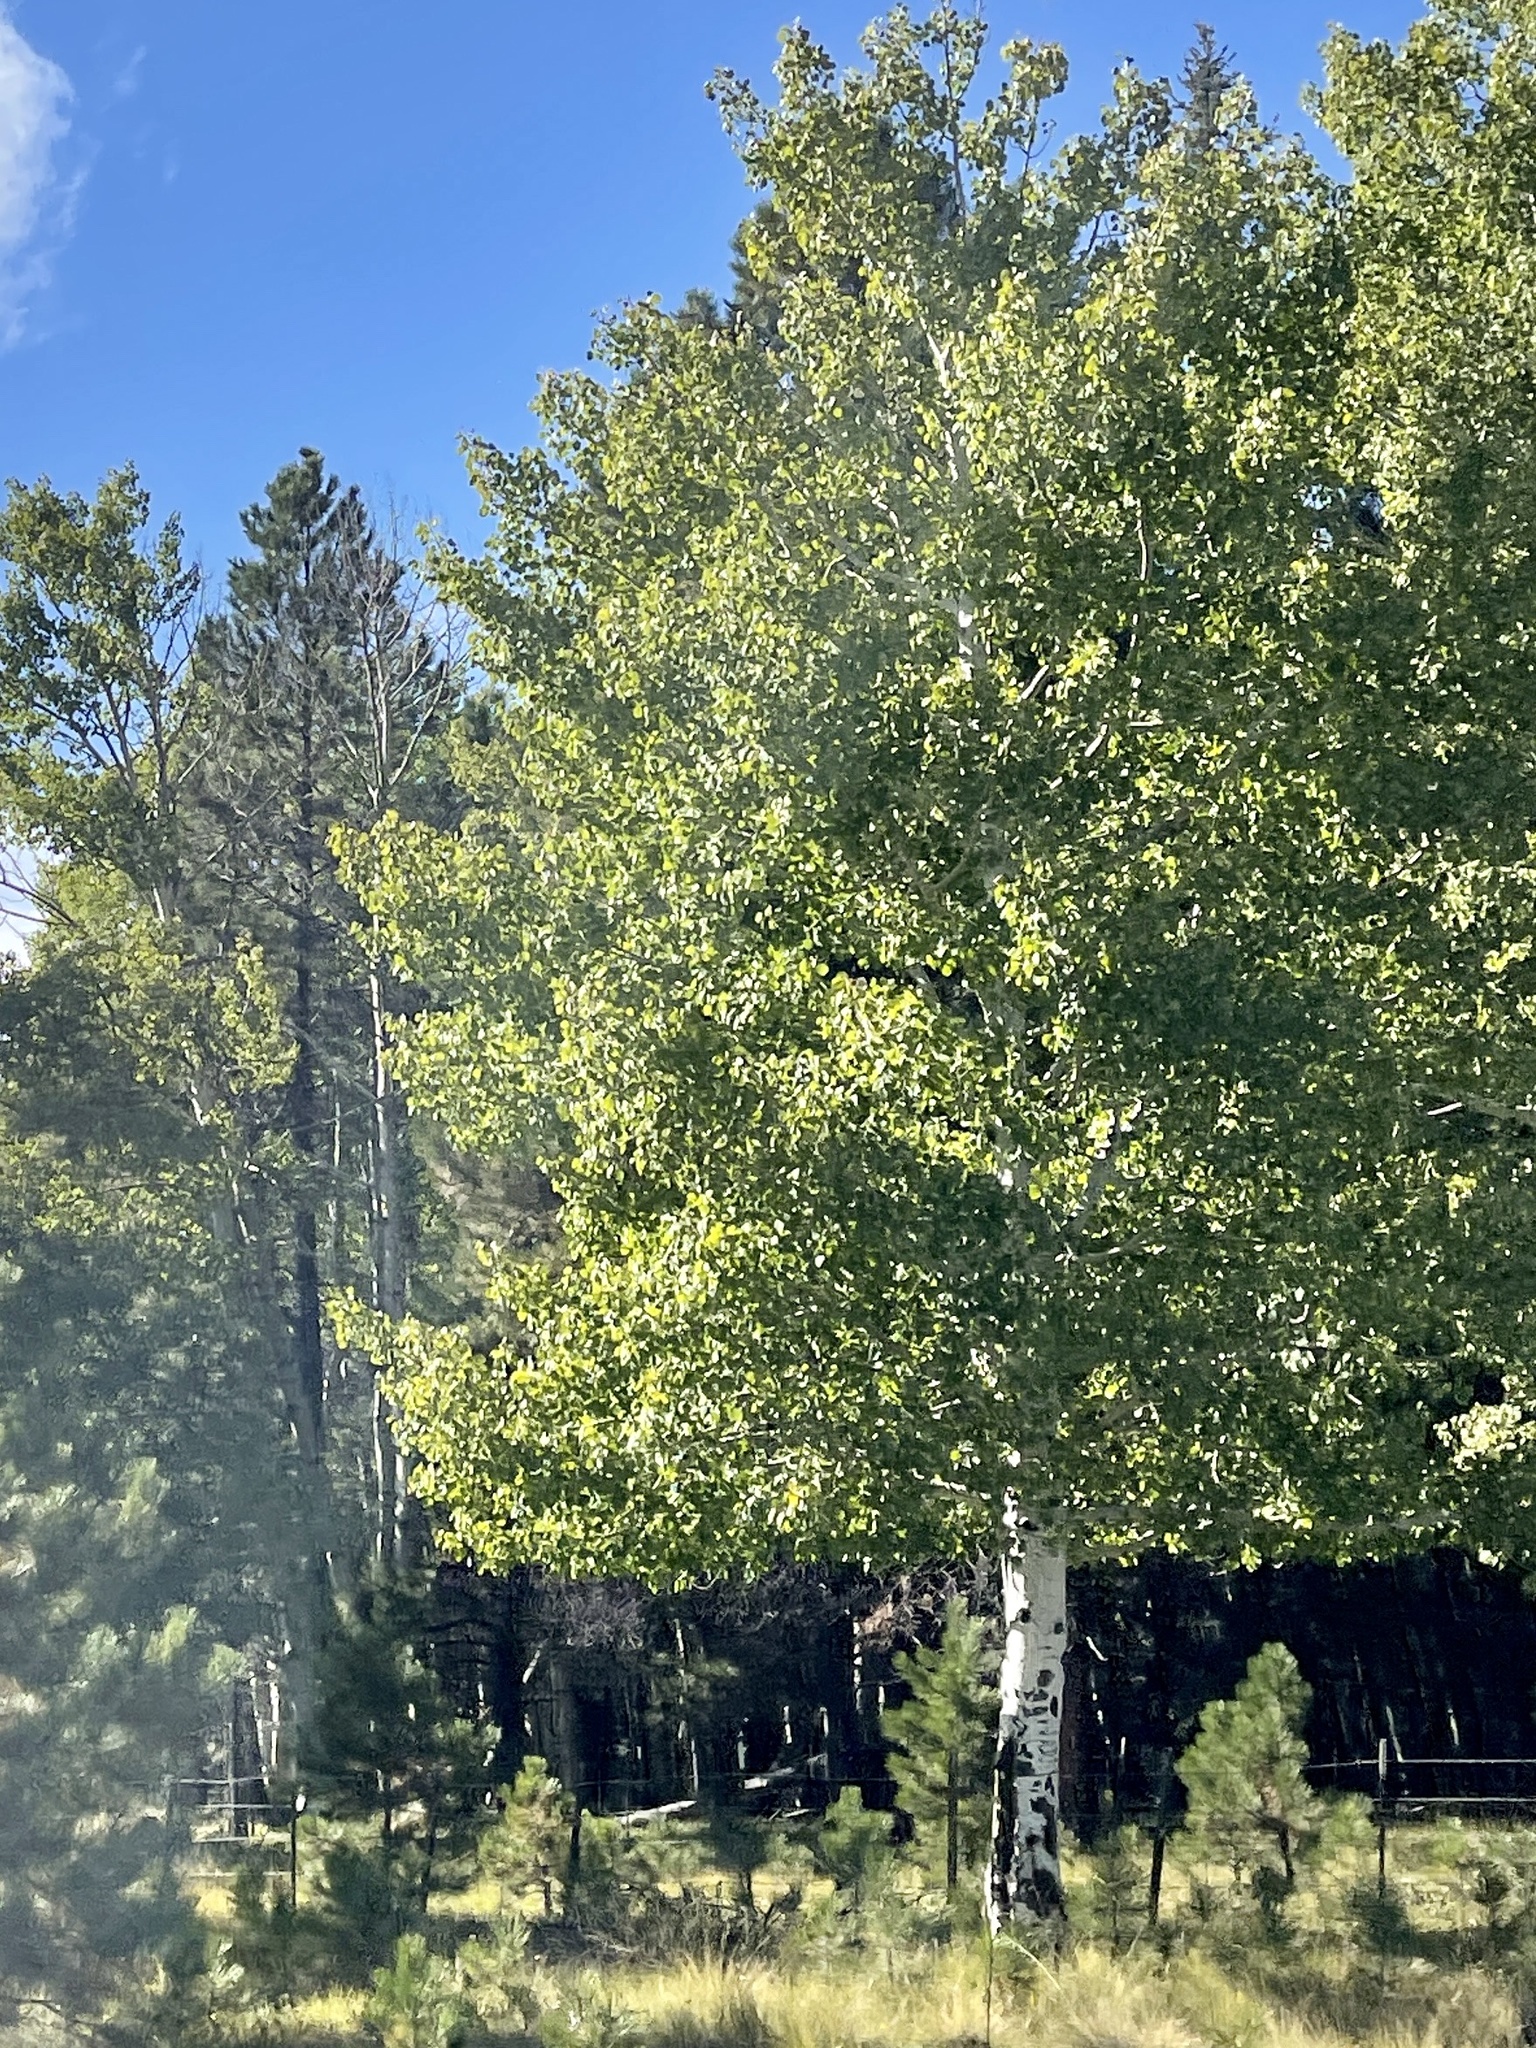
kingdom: Plantae
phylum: Tracheophyta
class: Magnoliopsida
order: Malpighiales
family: Salicaceae
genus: Populus
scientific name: Populus tremuloides
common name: Quaking aspen
